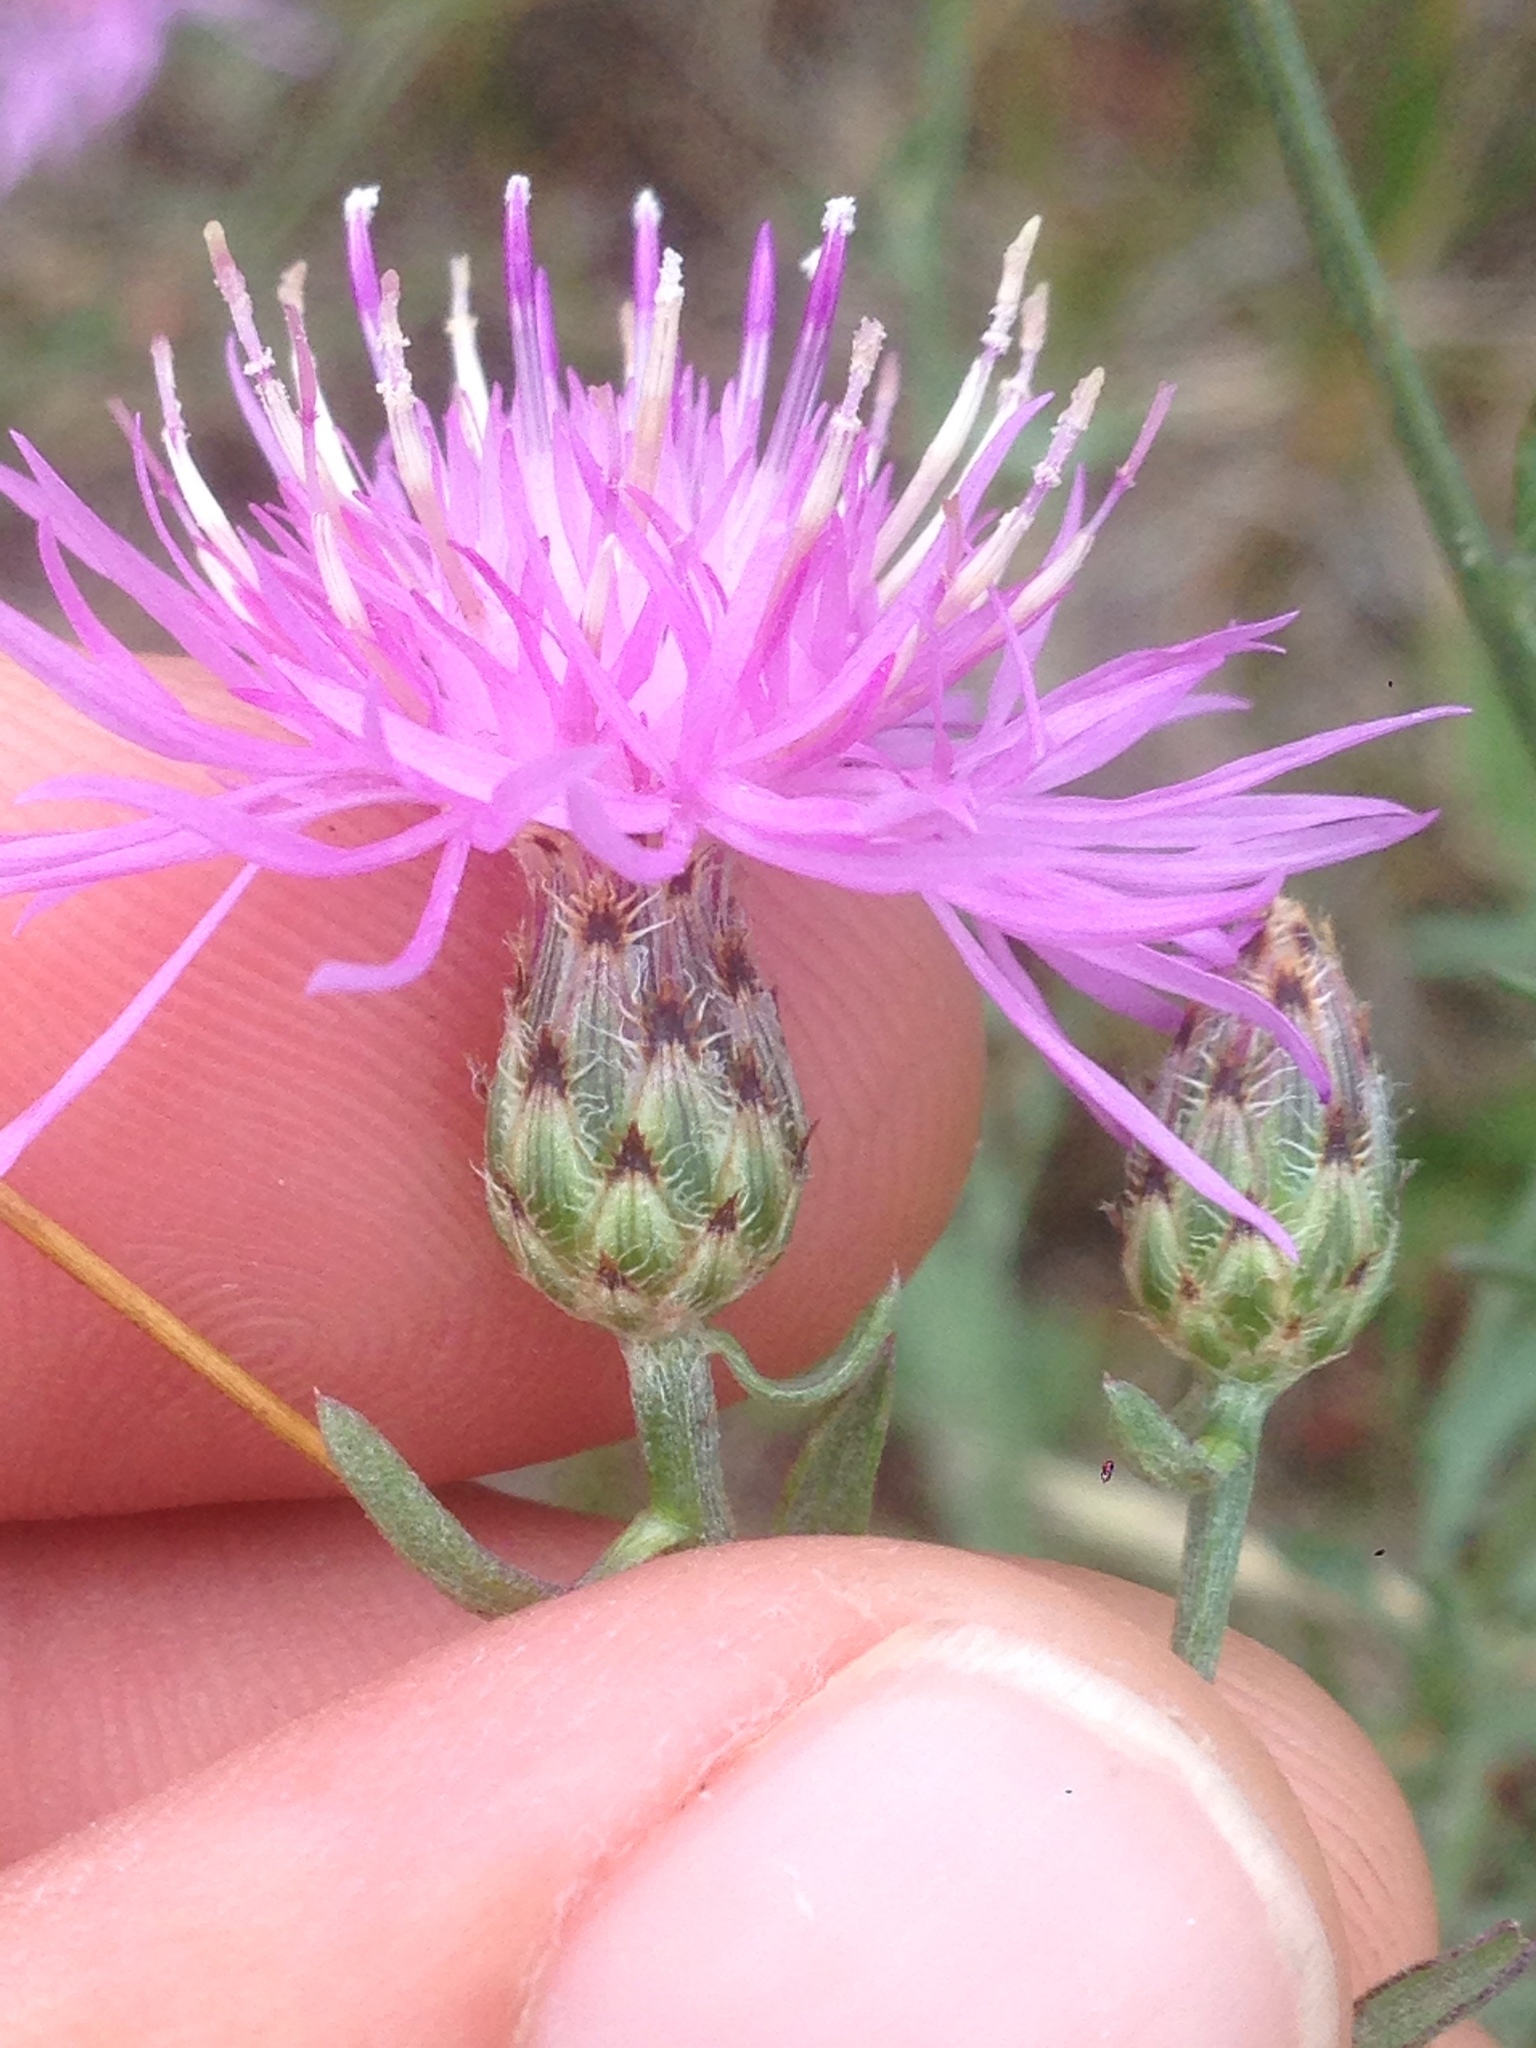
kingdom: Plantae
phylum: Tracheophyta
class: Magnoliopsida
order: Asterales
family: Asteraceae
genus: Centaurea
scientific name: Centaurea stoebe
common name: Spotted knapweed
